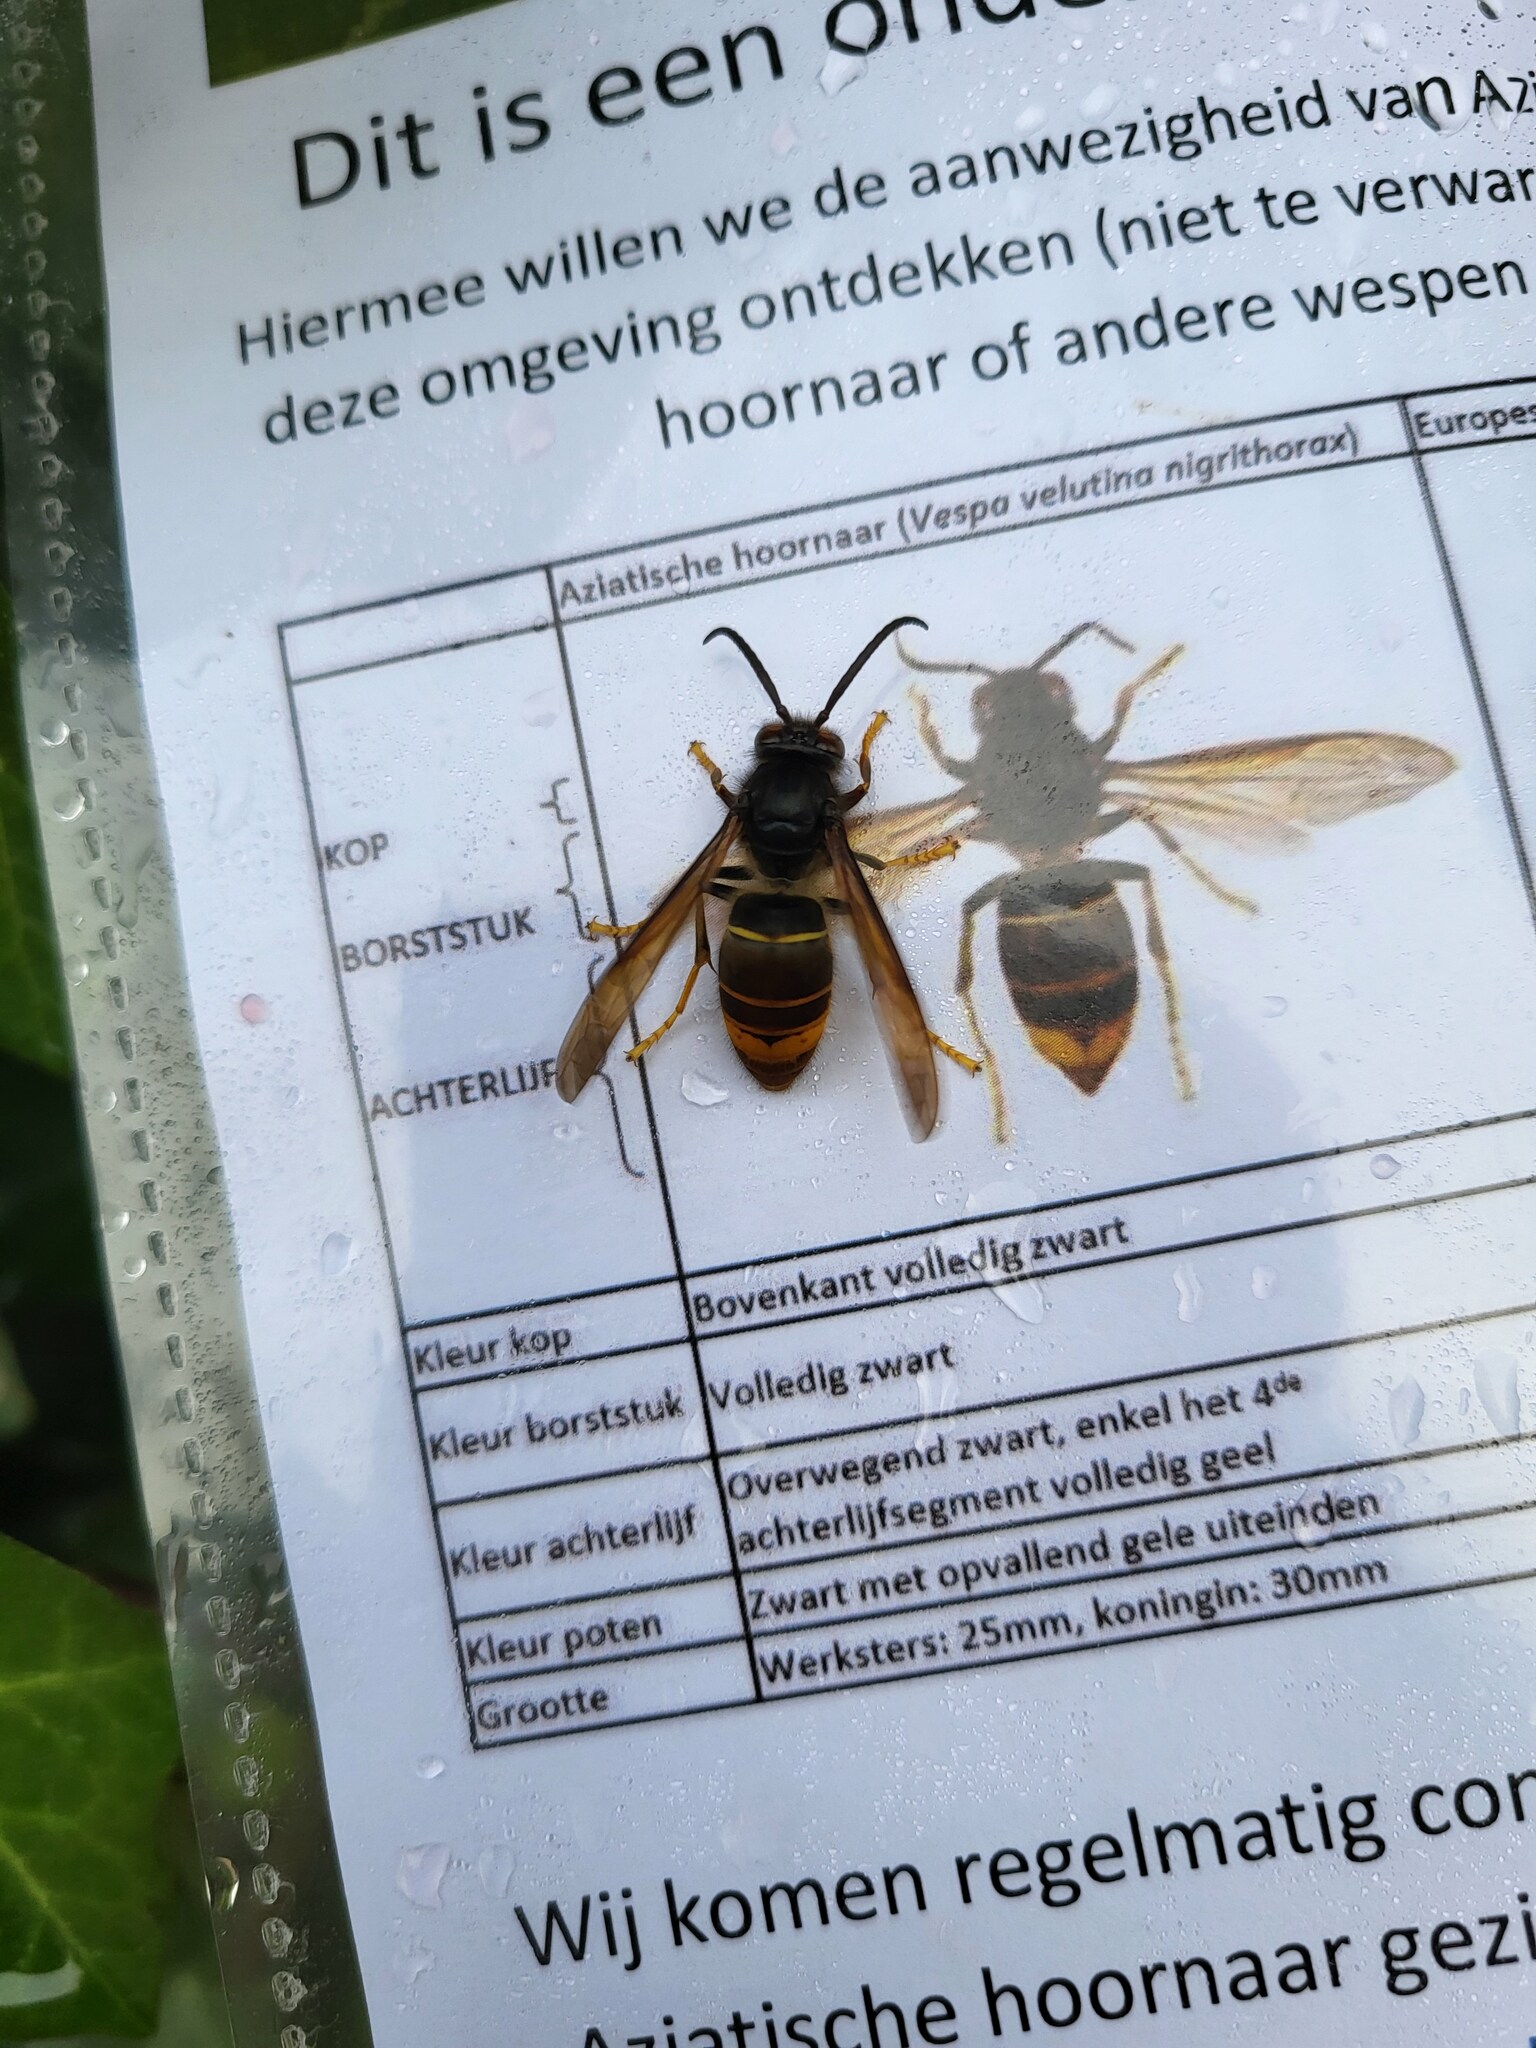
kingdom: Animalia
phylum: Arthropoda
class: Insecta
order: Hymenoptera
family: Vespidae
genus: Vespa
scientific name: Vespa velutina
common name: Asian hornet
